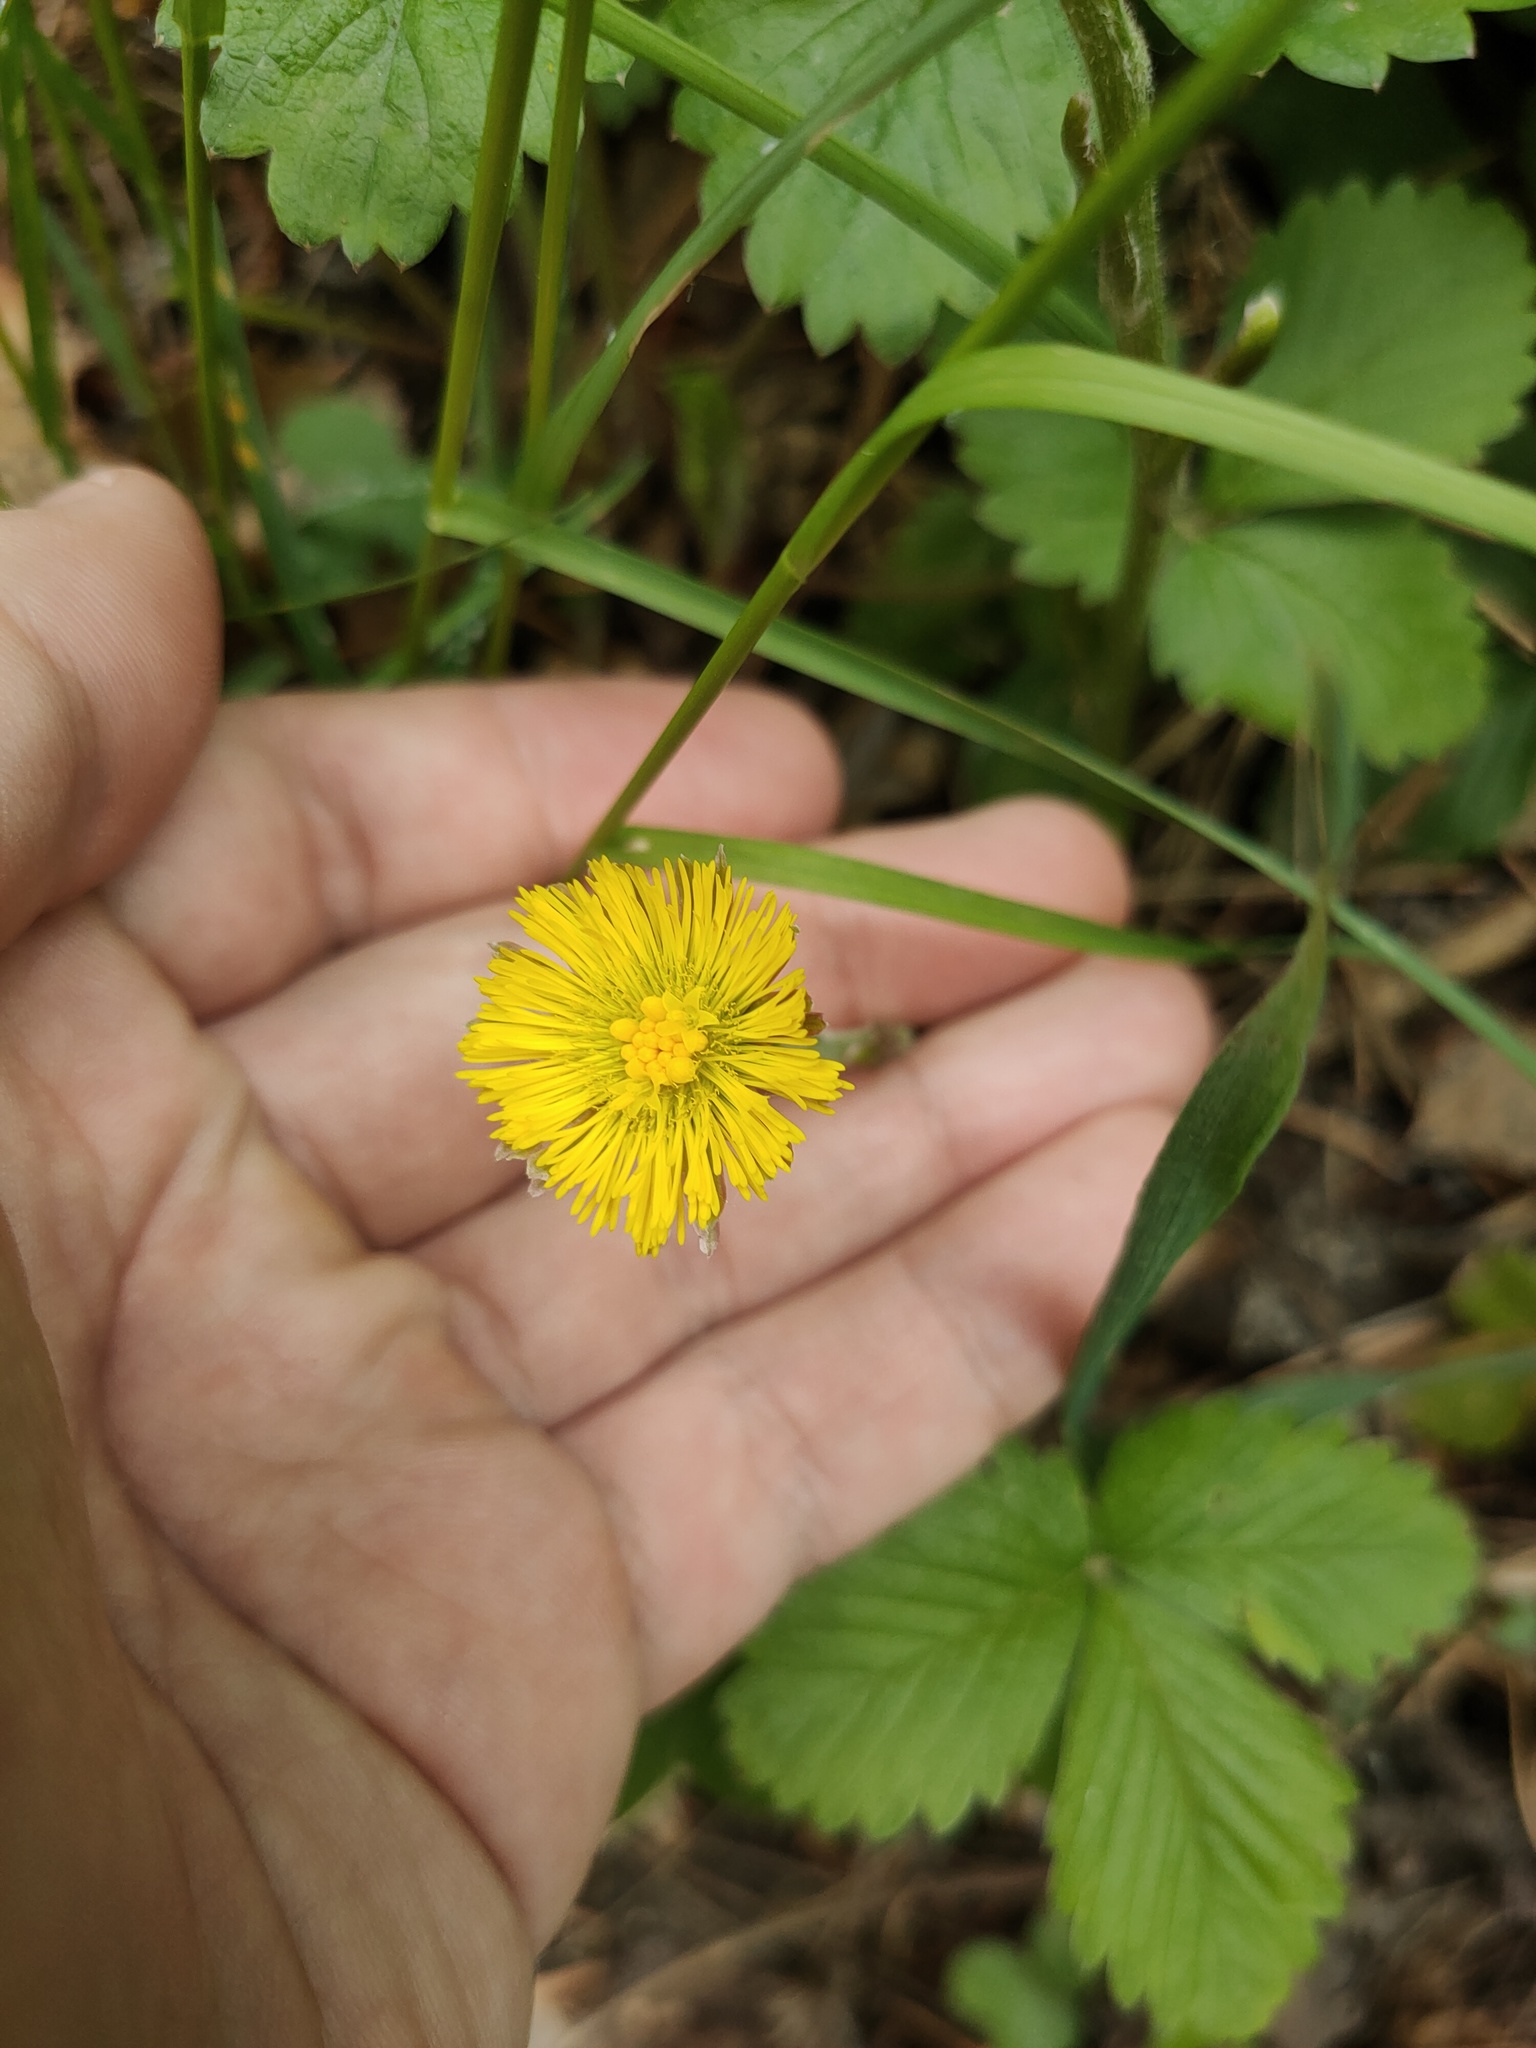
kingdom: Plantae
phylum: Tracheophyta
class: Magnoliopsida
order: Asterales
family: Asteraceae
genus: Tussilago
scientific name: Tussilago farfara
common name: Coltsfoot
